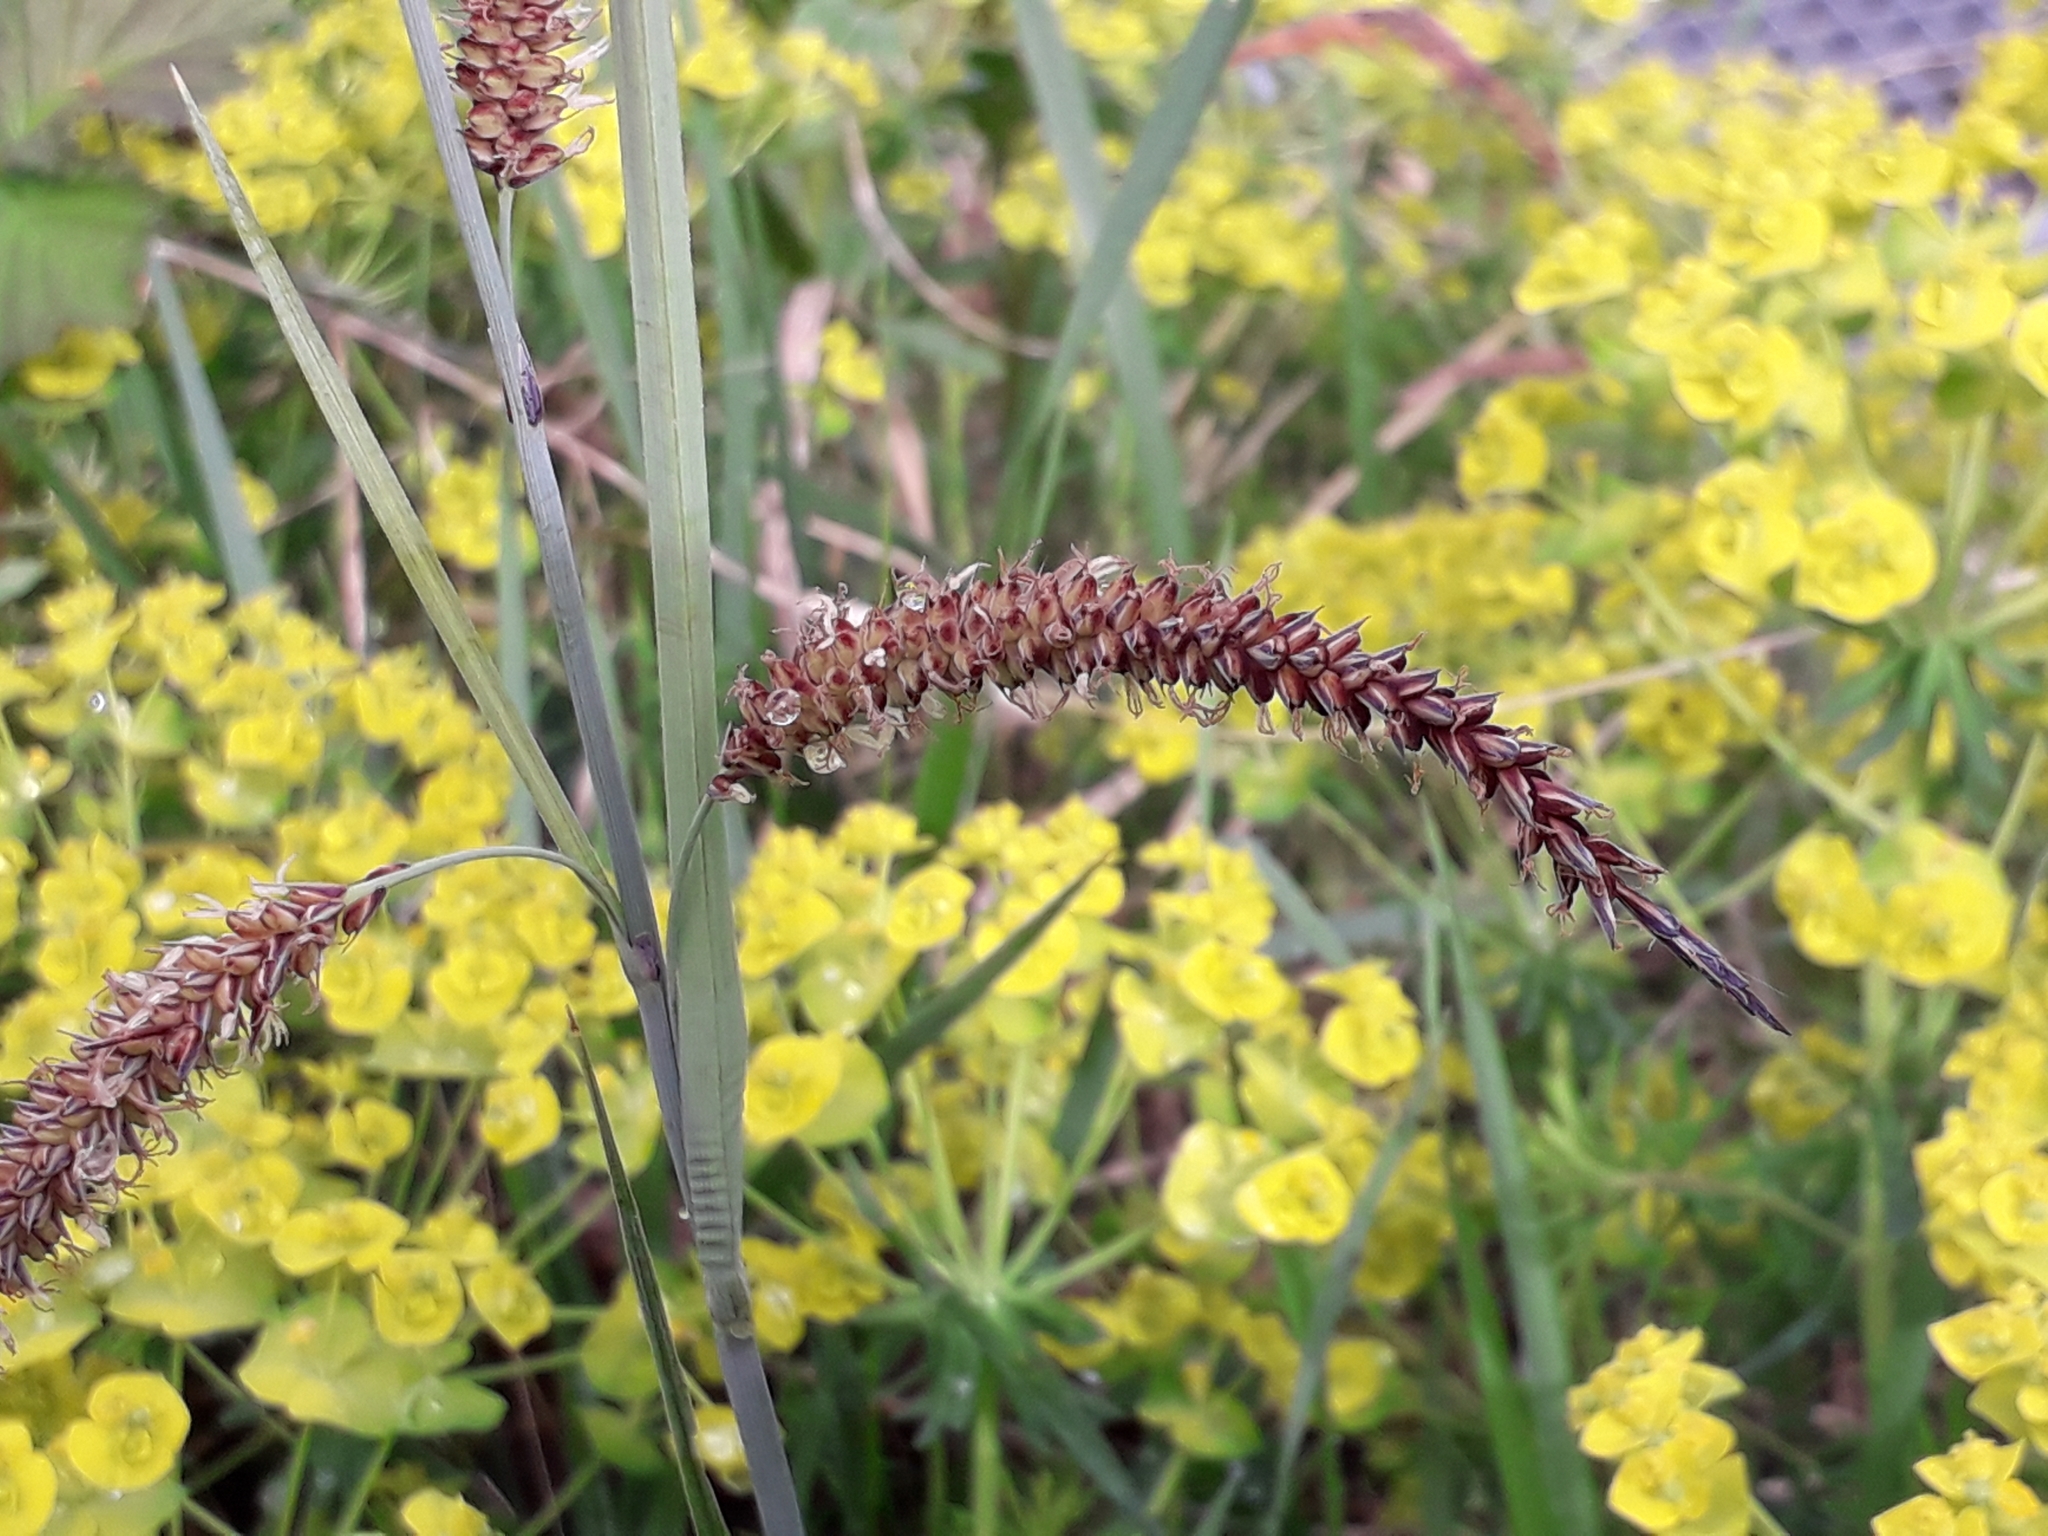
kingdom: Plantae
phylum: Tracheophyta
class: Liliopsida
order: Poales
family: Cyperaceae
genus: Carex
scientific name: Carex flacca
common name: Glaucous sedge
